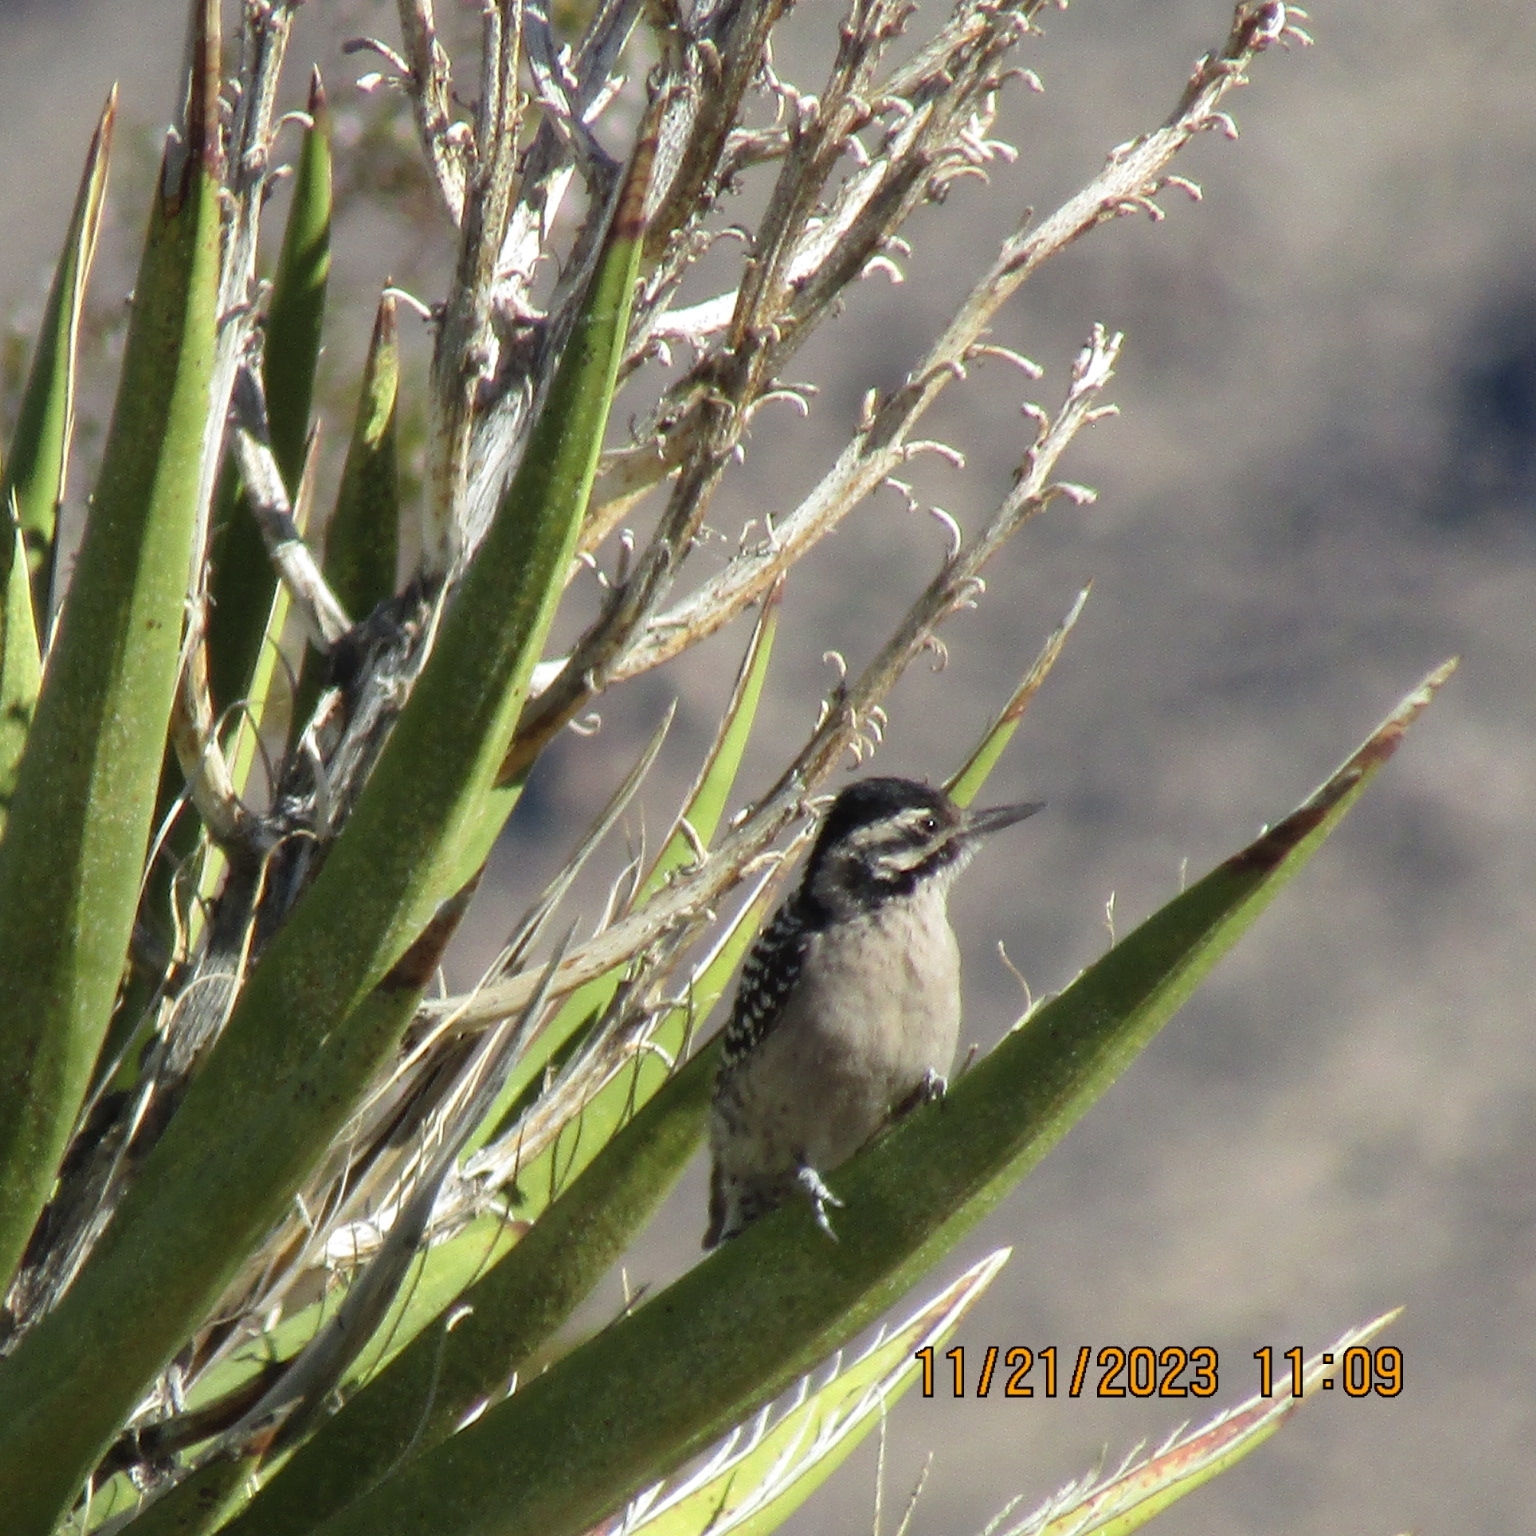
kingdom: Animalia
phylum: Chordata
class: Aves
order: Piciformes
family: Picidae
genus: Dryobates
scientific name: Dryobates scalaris
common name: Ladder-backed woodpecker
